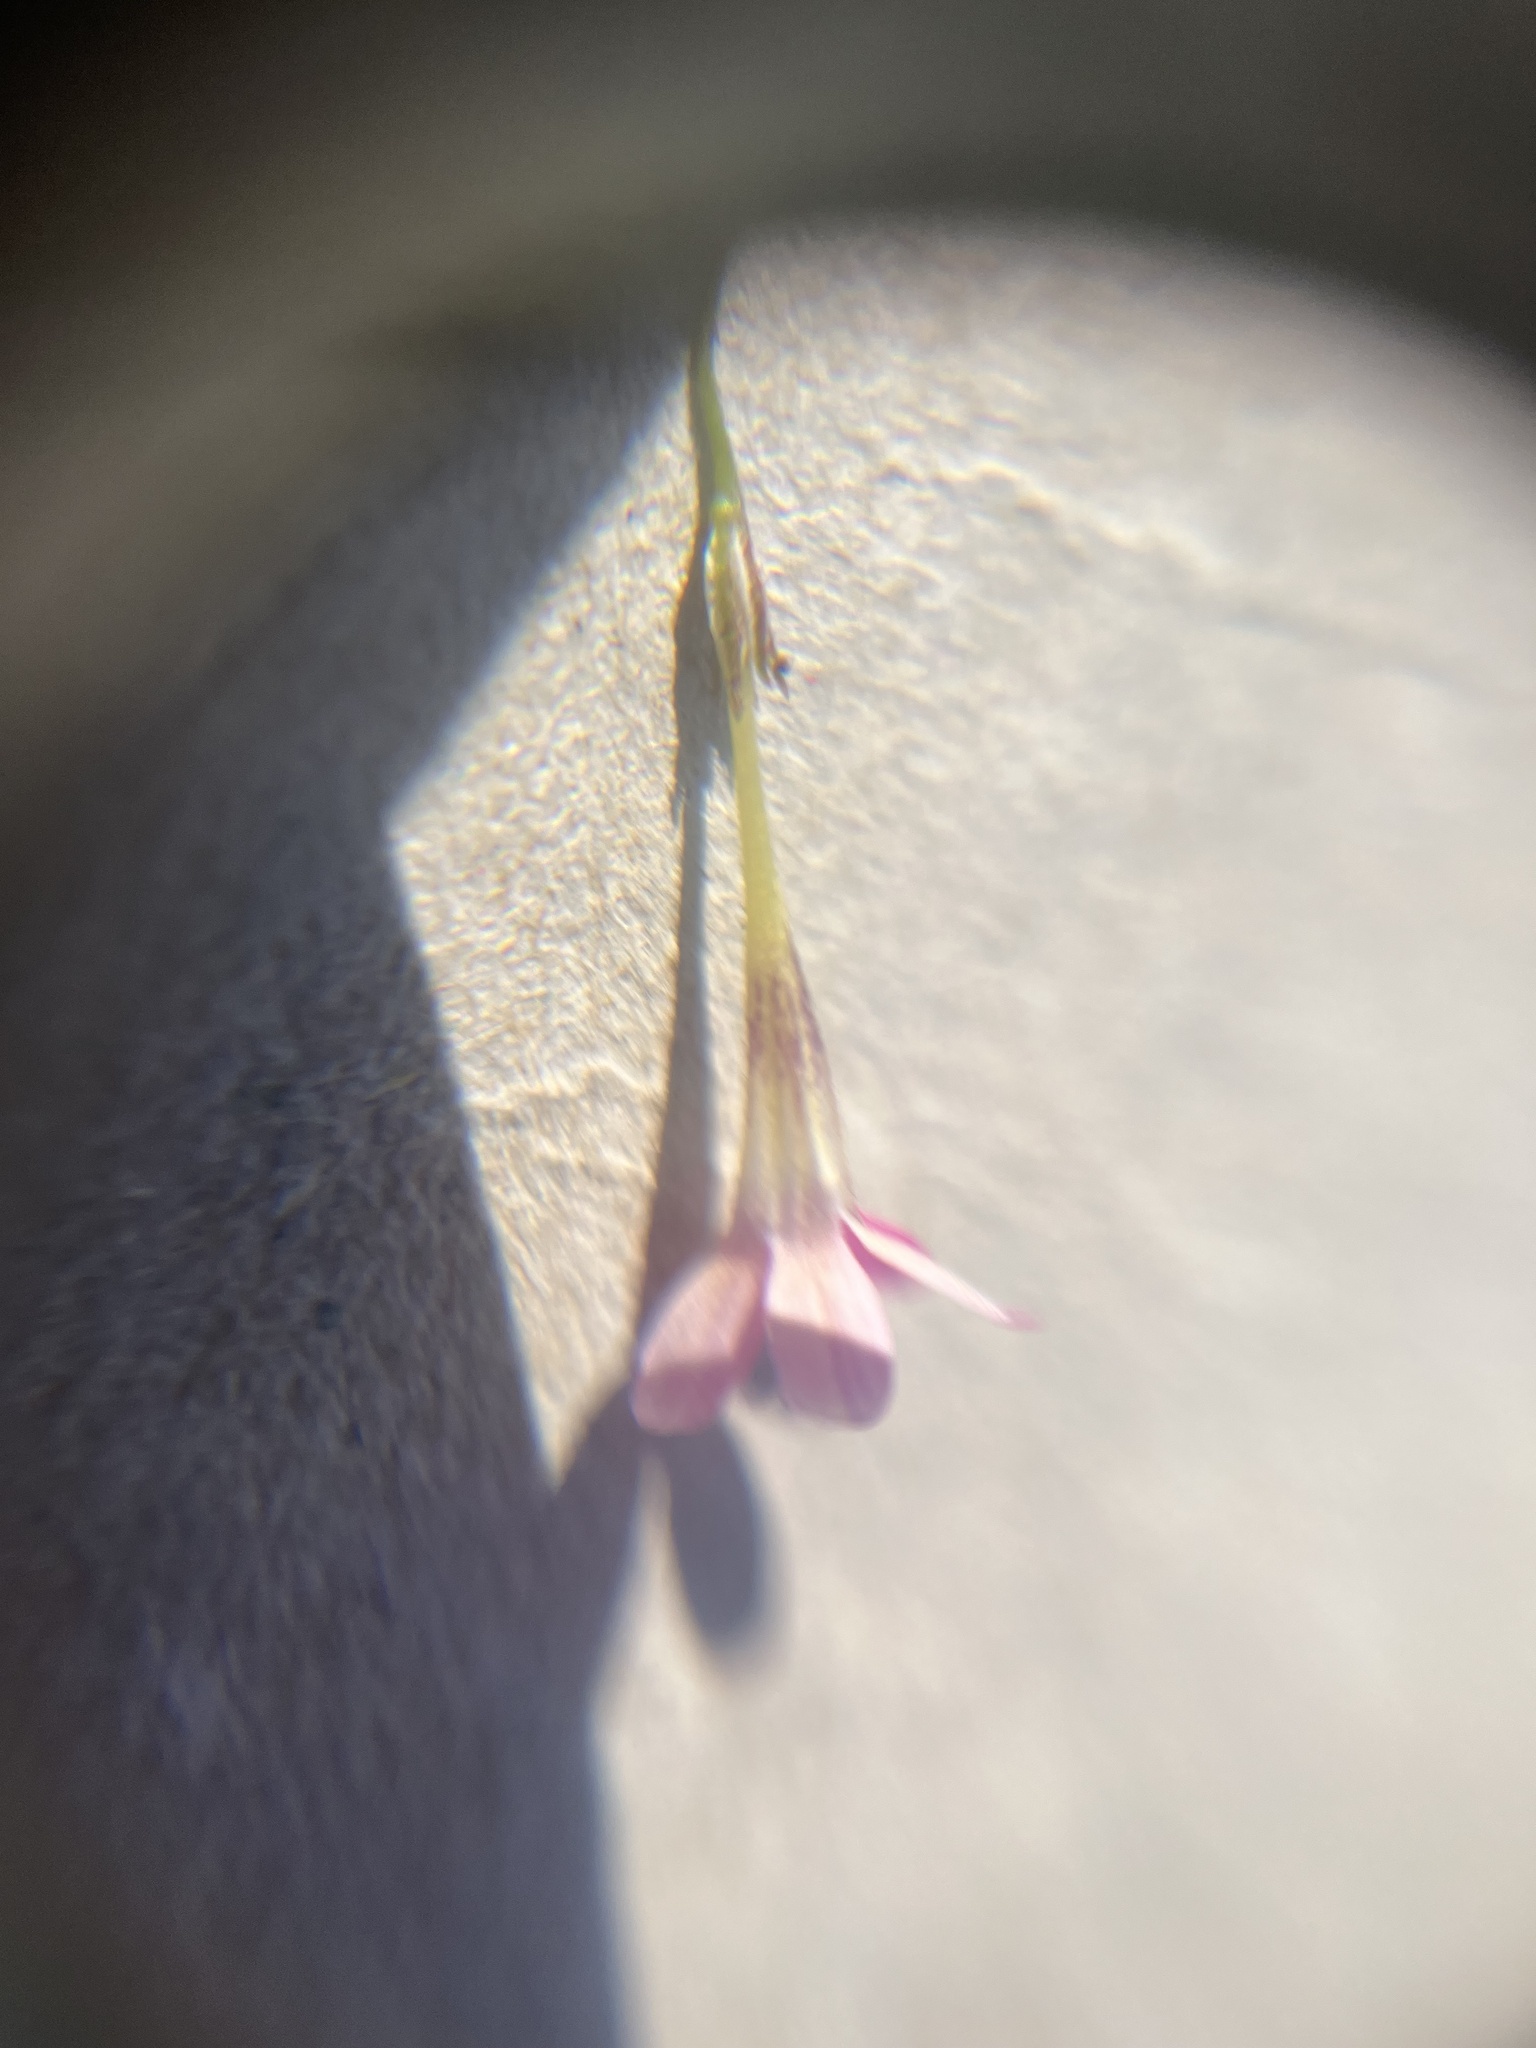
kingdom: Plantae
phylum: Tracheophyta
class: Magnoliopsida
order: Ericales
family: Polemoniaceae
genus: Navarretia
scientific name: Navarretia leptalea
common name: Bridges' pincushionplant
